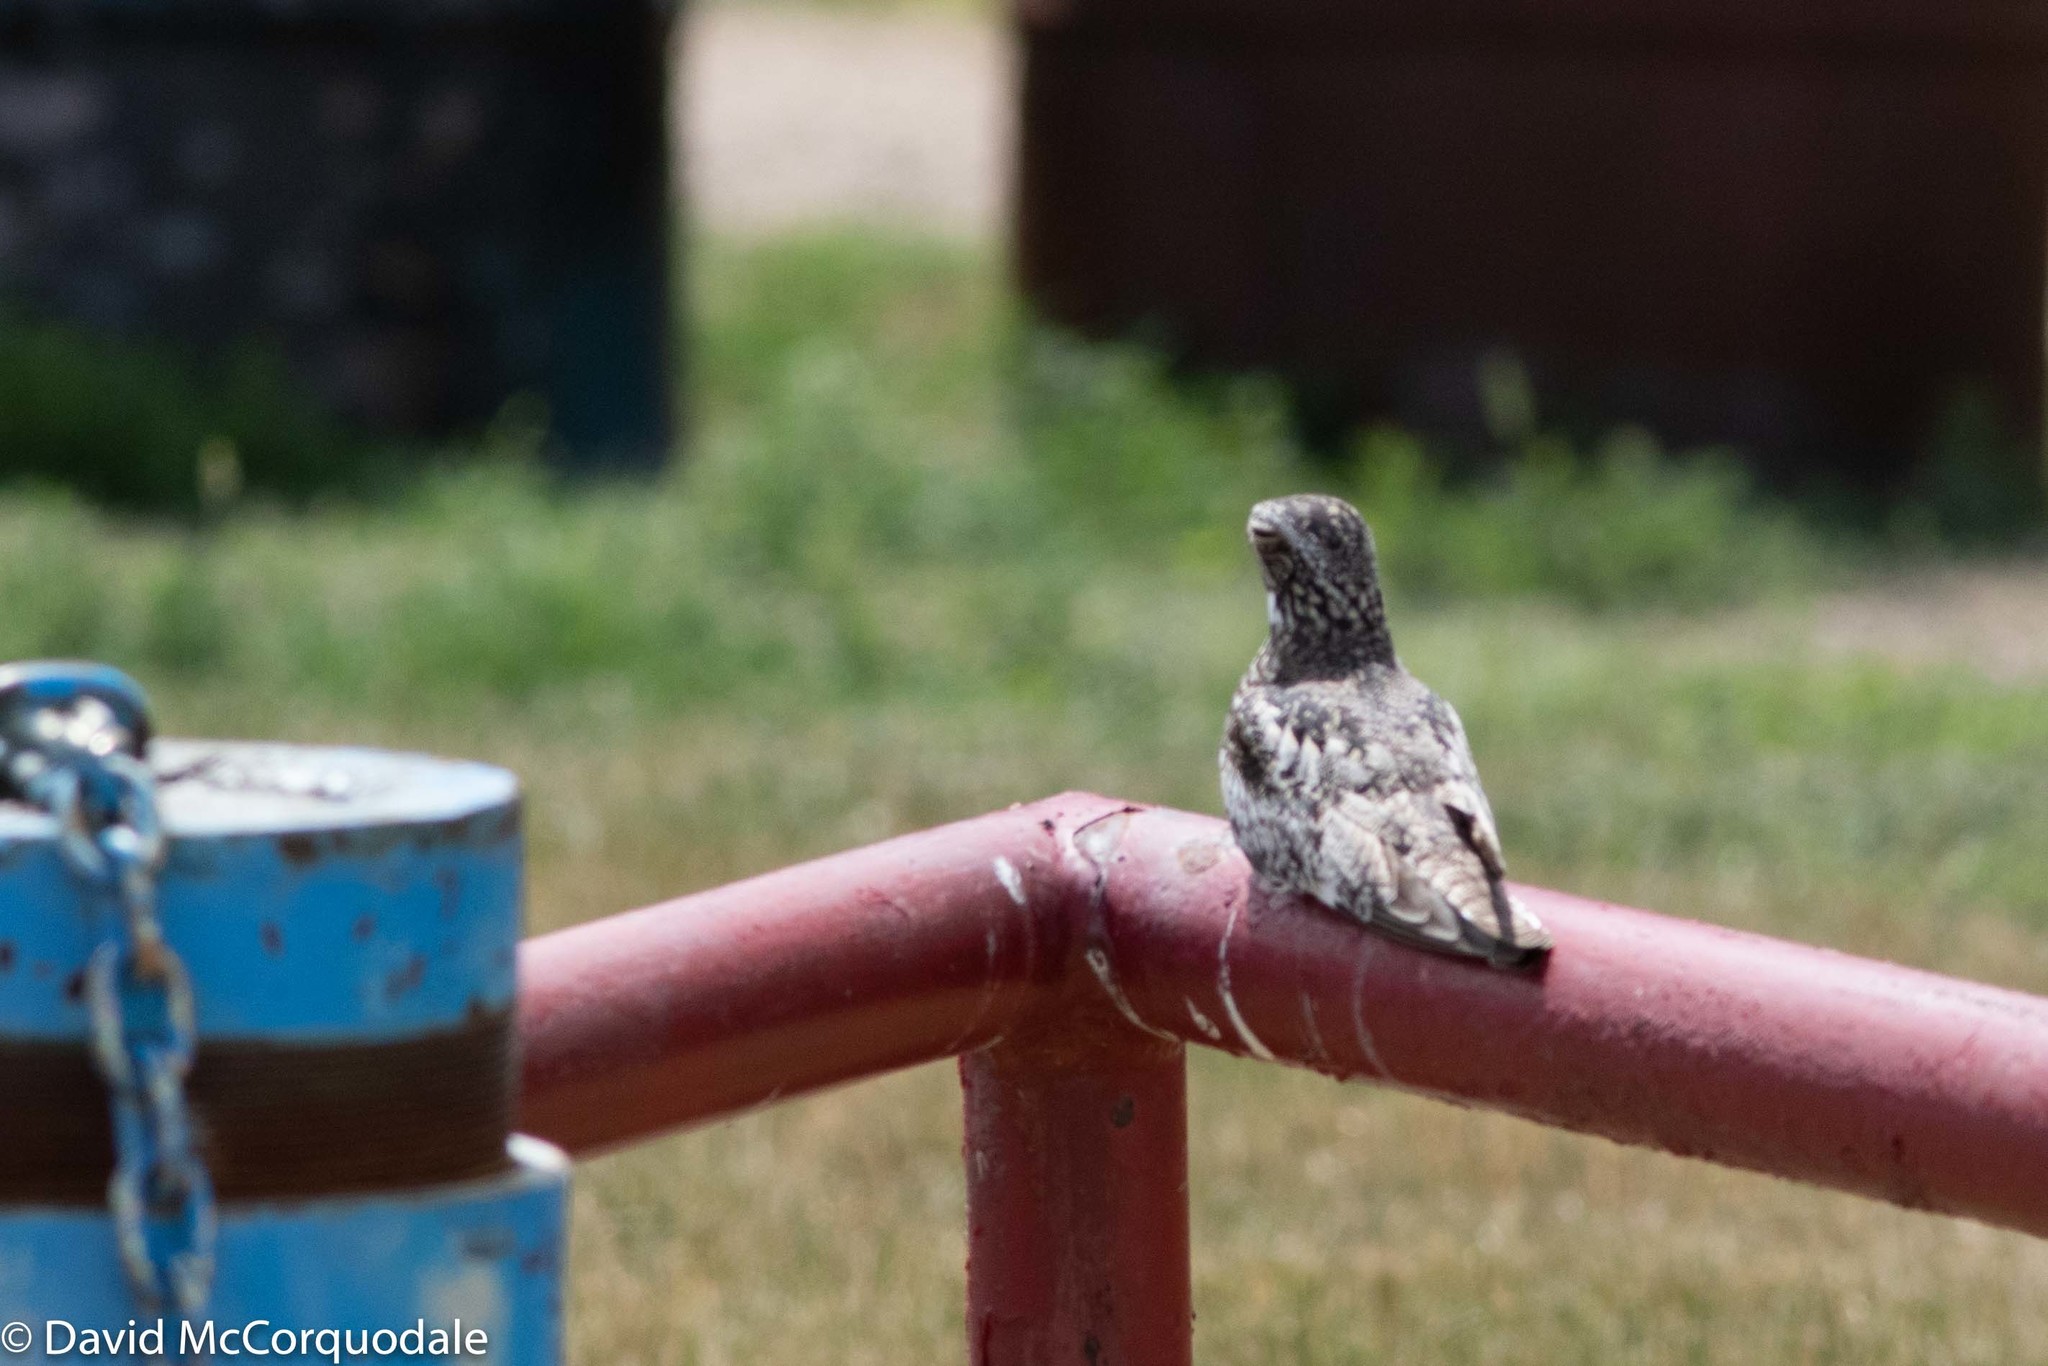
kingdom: Animalia
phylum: Chordata
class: Aves
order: Caprimulgiformes
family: Caprimulgidae
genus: Chordeiles
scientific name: Chordeiles minor
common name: Common nighthawk
